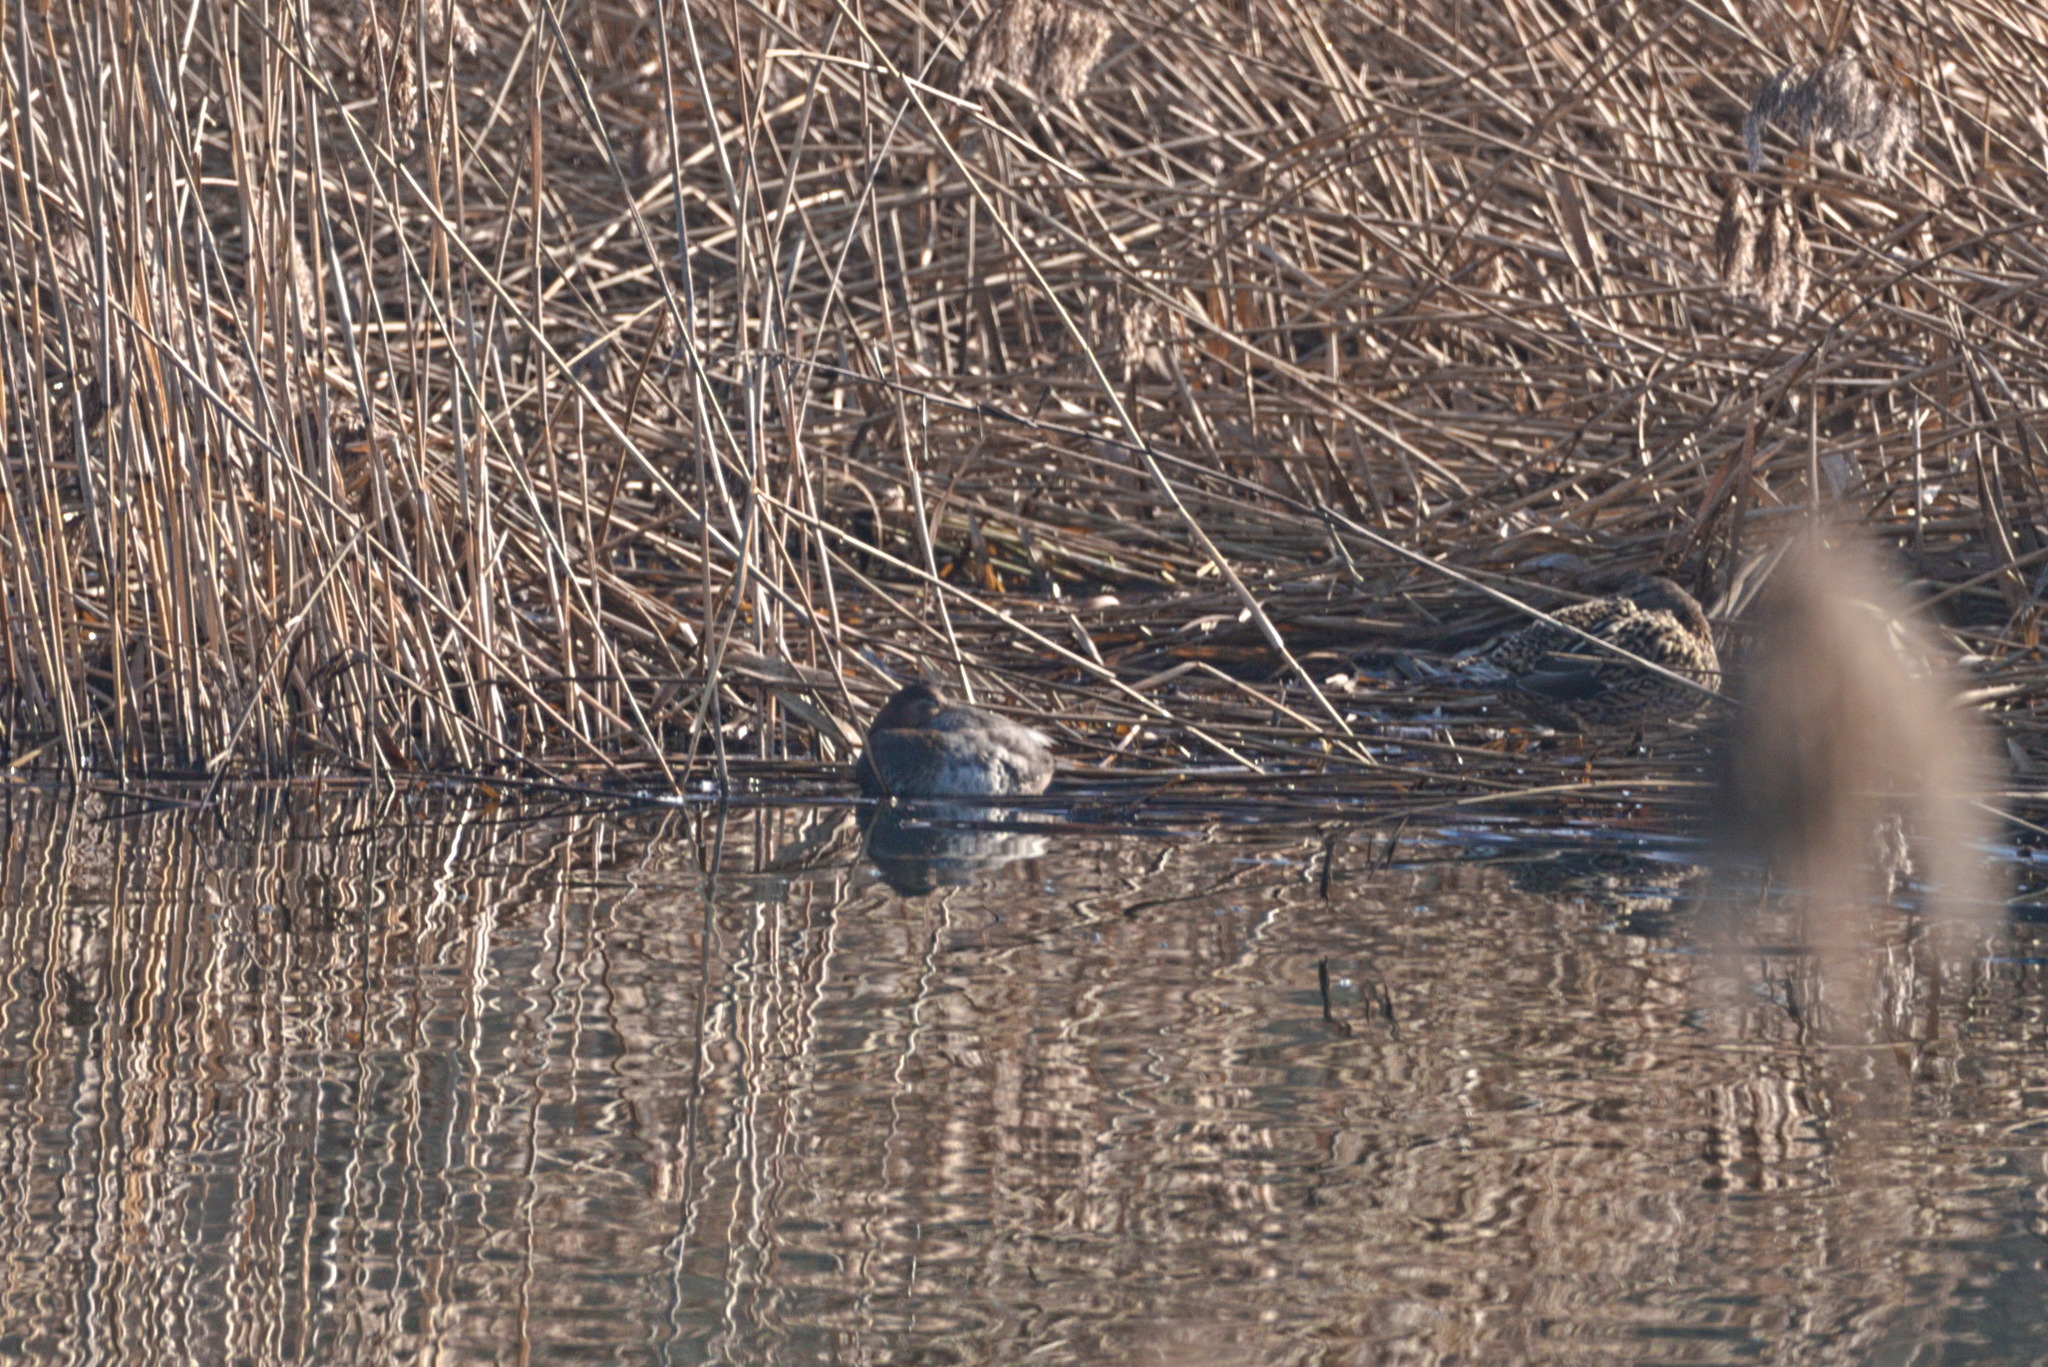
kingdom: Animalia
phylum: Chordata
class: Aves
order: Anseriformes
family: Anatidae
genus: Aythya
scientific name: Aythya ferina
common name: Common pochard
